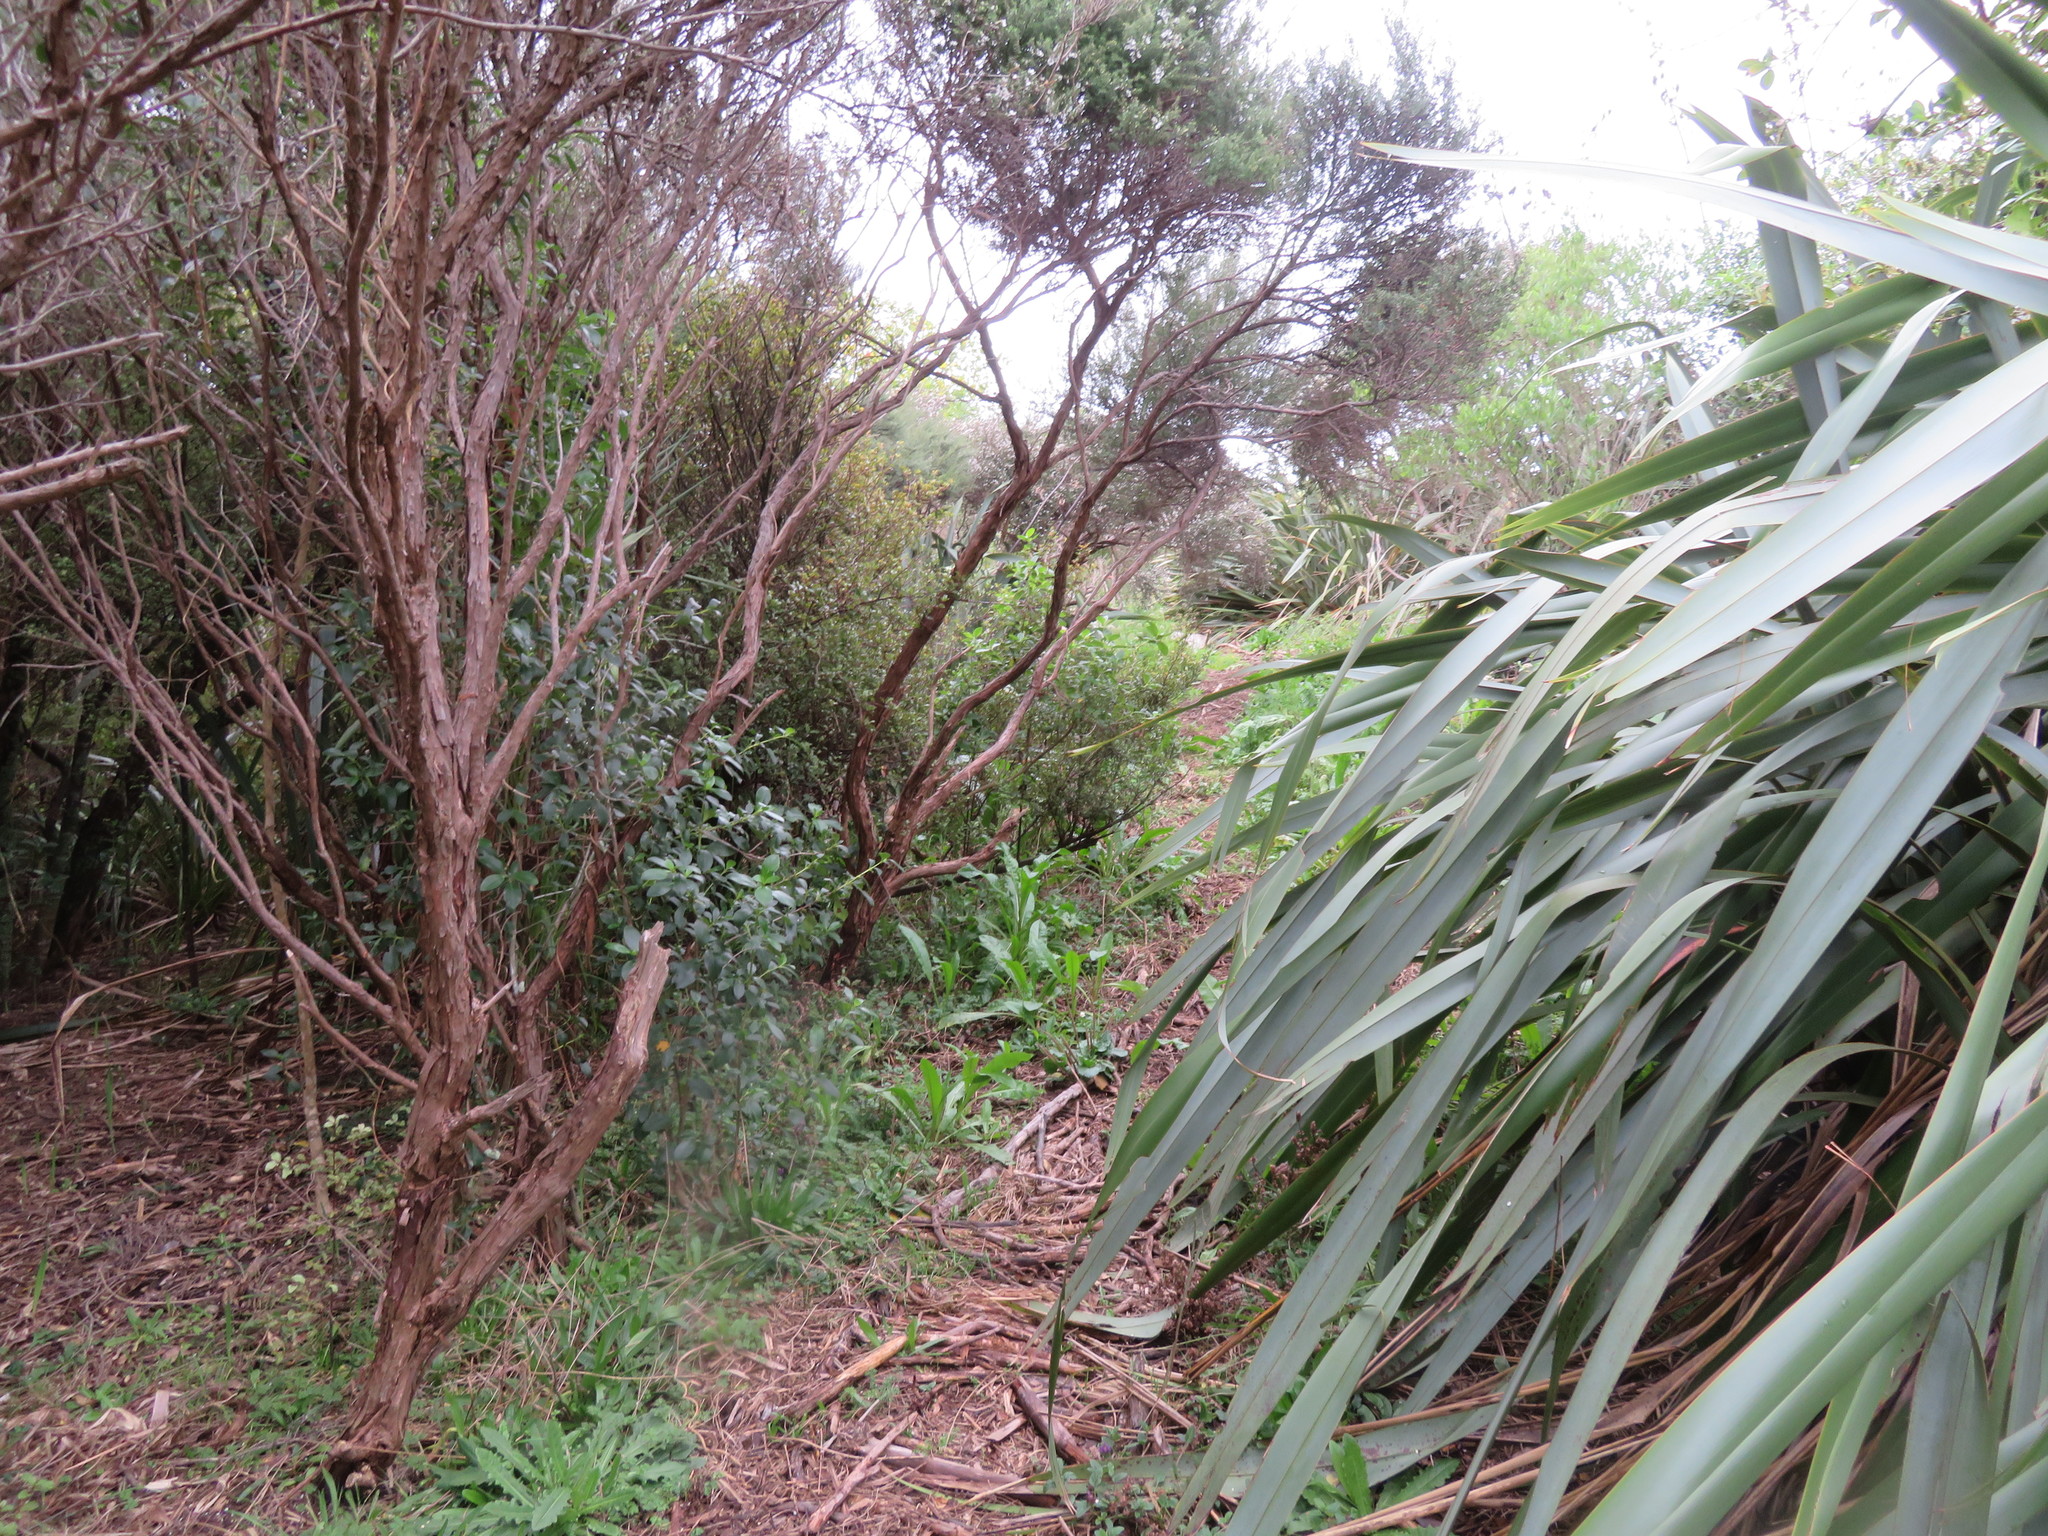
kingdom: Plantae
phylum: Tracheophyta
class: Magnoliopsida
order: Myrtales
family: Myrtaceae
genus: Leptospermum
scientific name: Leptospermum scoparium
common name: Broom tea-tree
